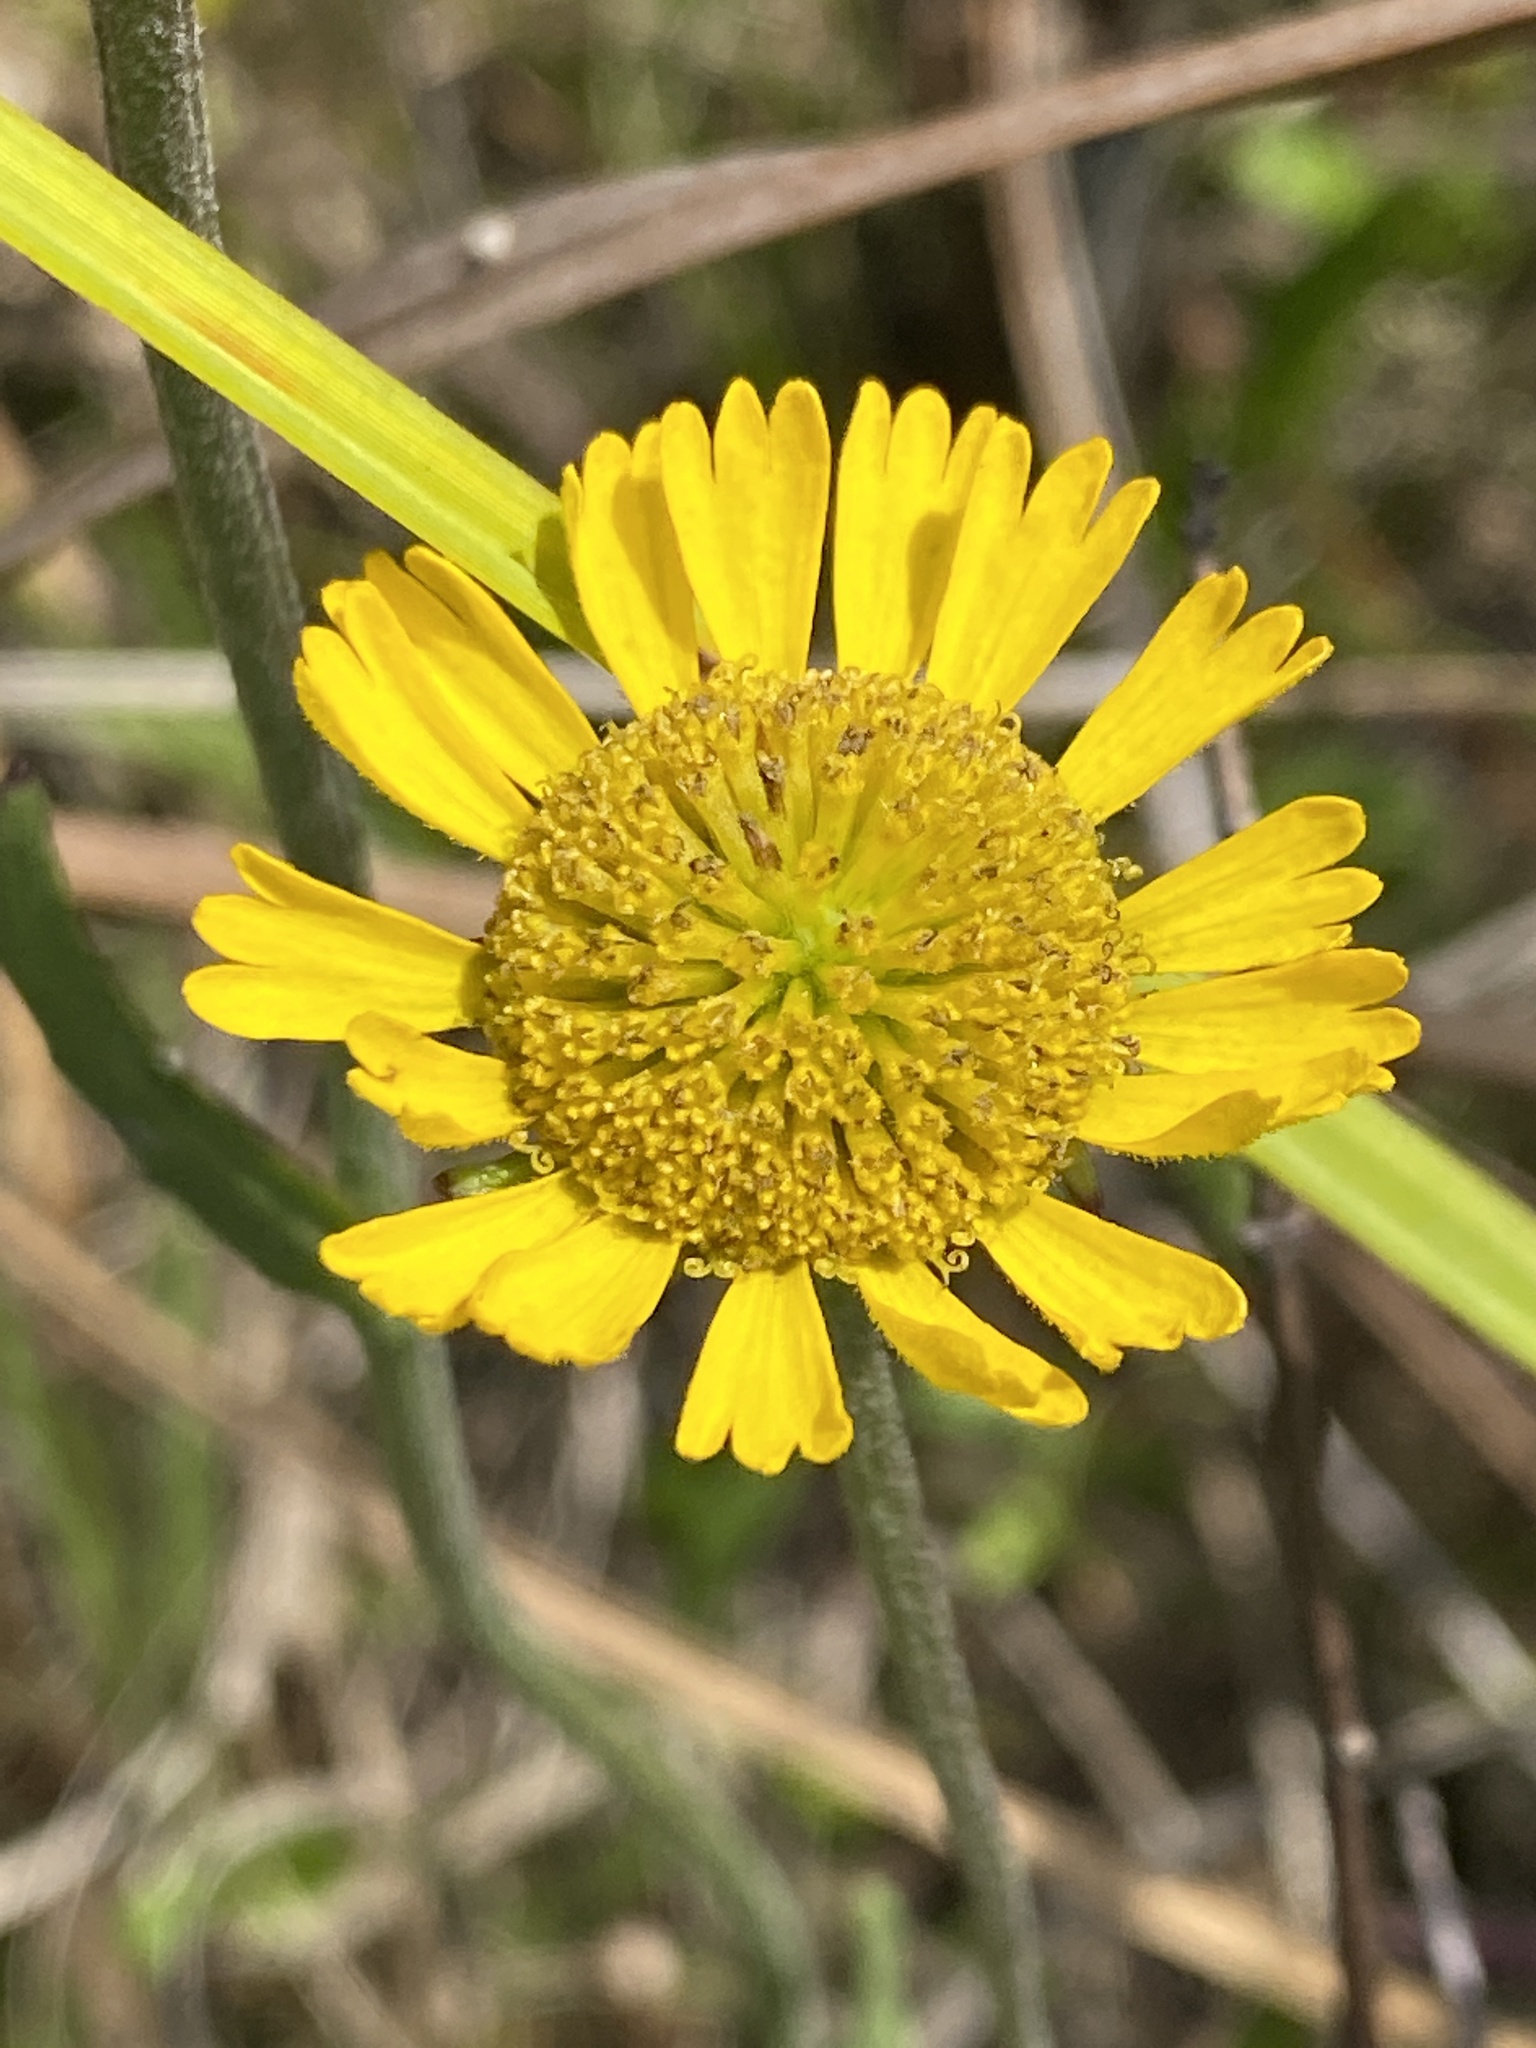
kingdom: Plantae
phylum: Tracheophyta
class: Magnoliopsida
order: Asterales
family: Asteraceae
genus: Helenium
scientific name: Helenium pinnatifidum
